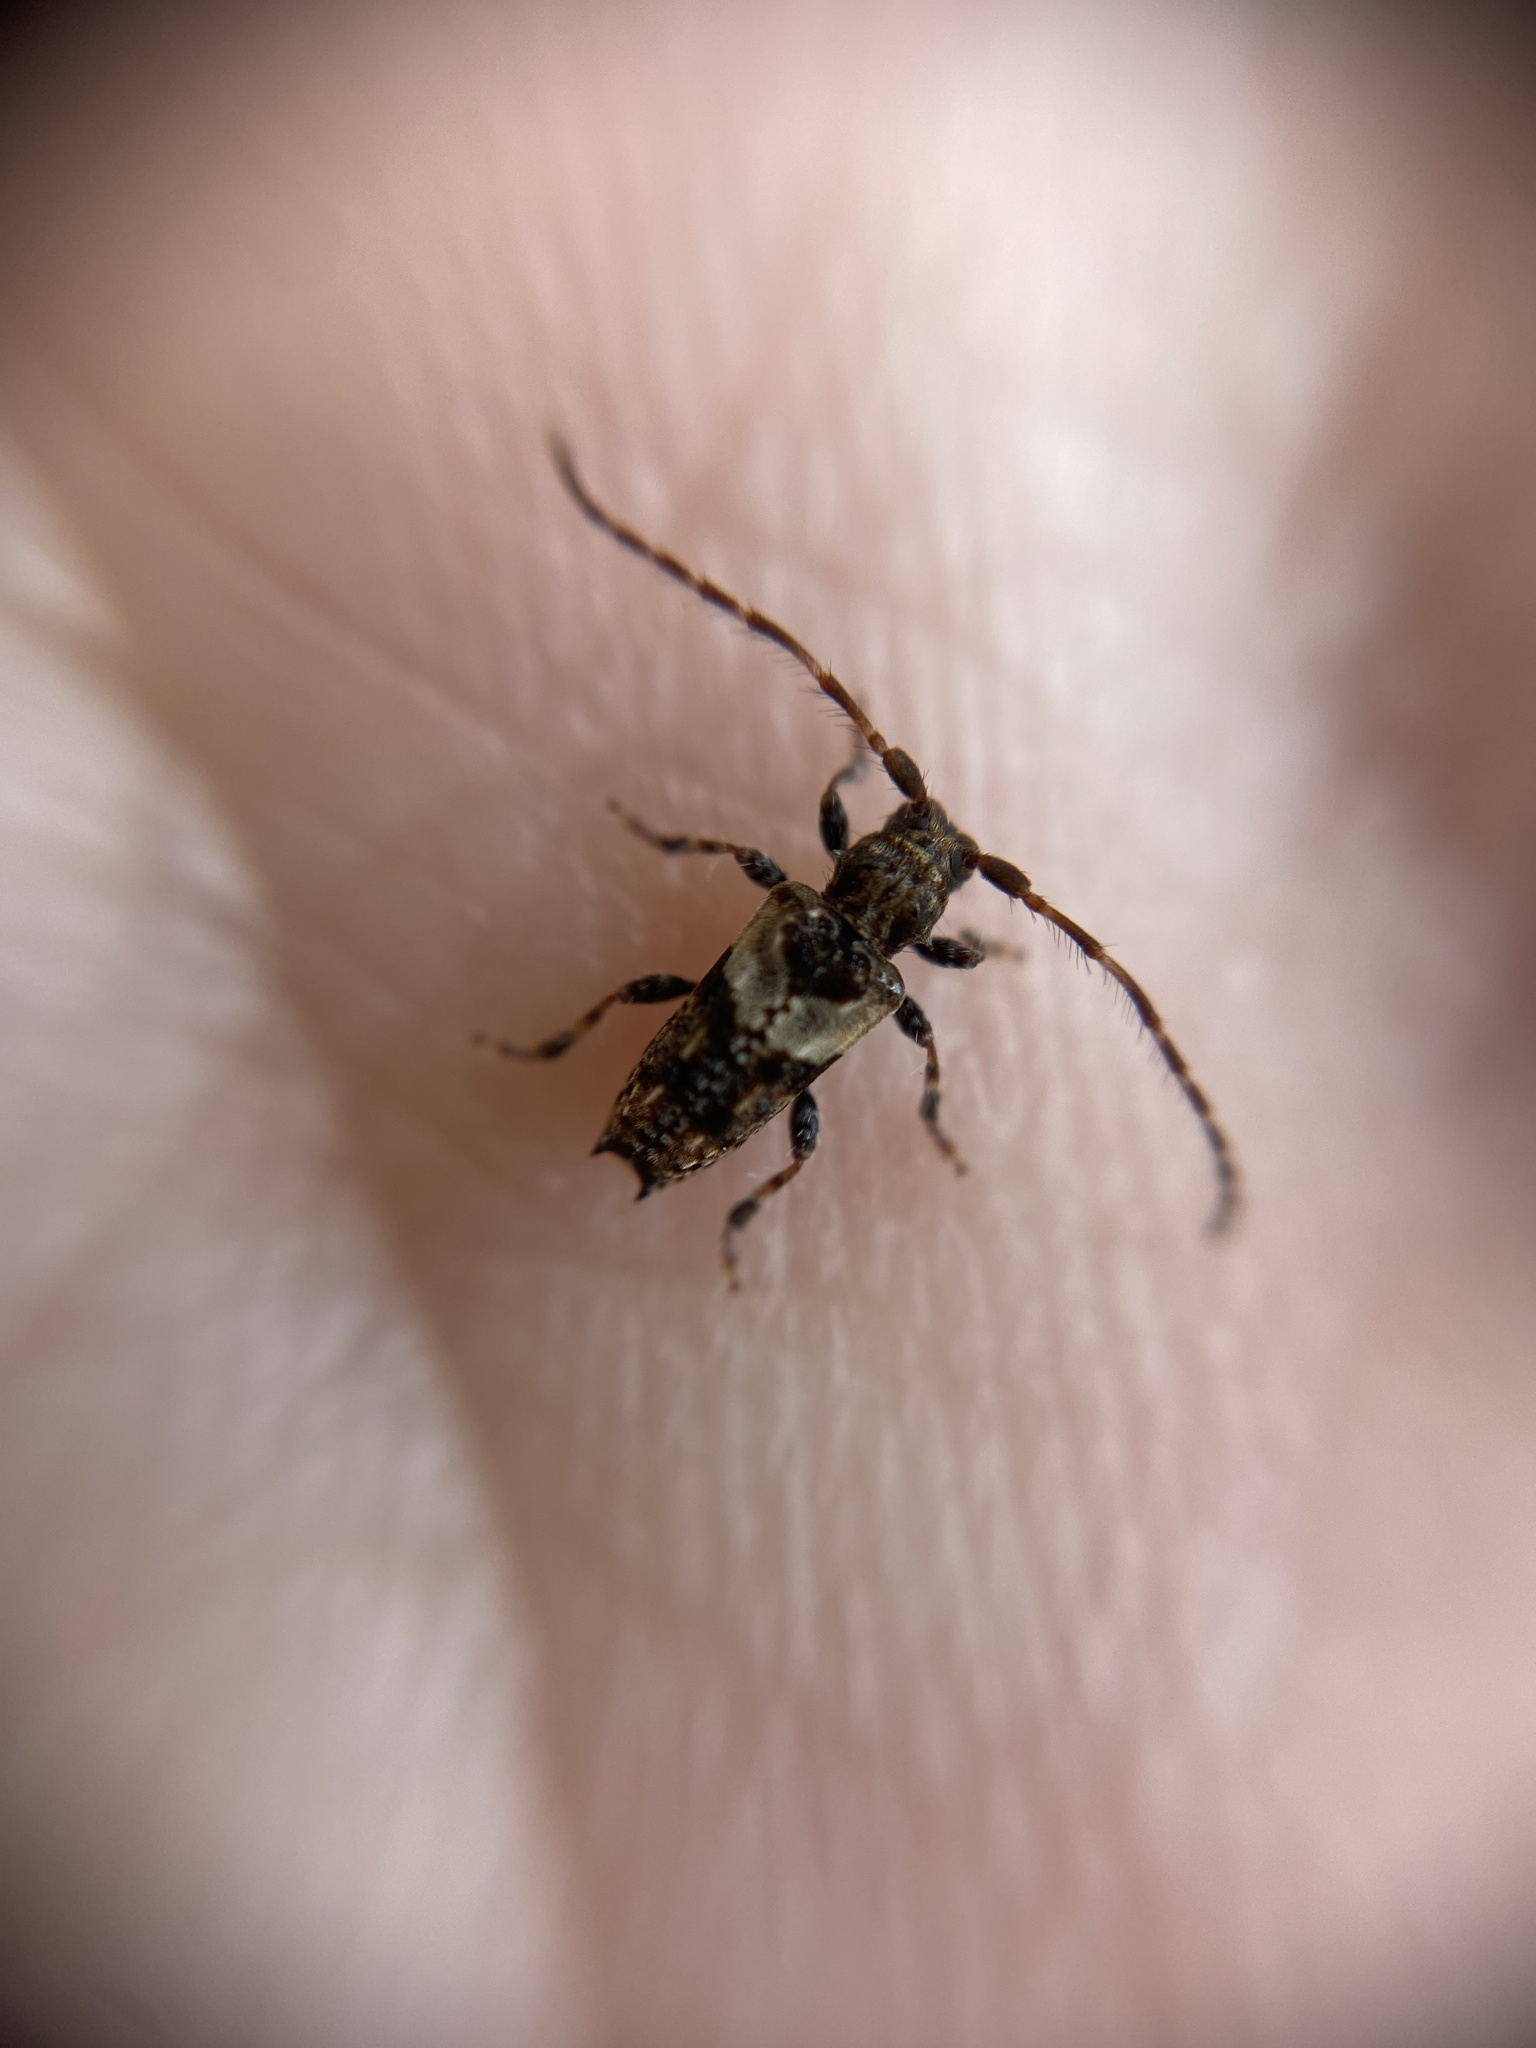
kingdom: Animalia
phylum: Arthropoda
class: Insecta
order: Coleoptera
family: Cerambycidae
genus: Pogonocherus
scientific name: Pogonocherus hispidus
